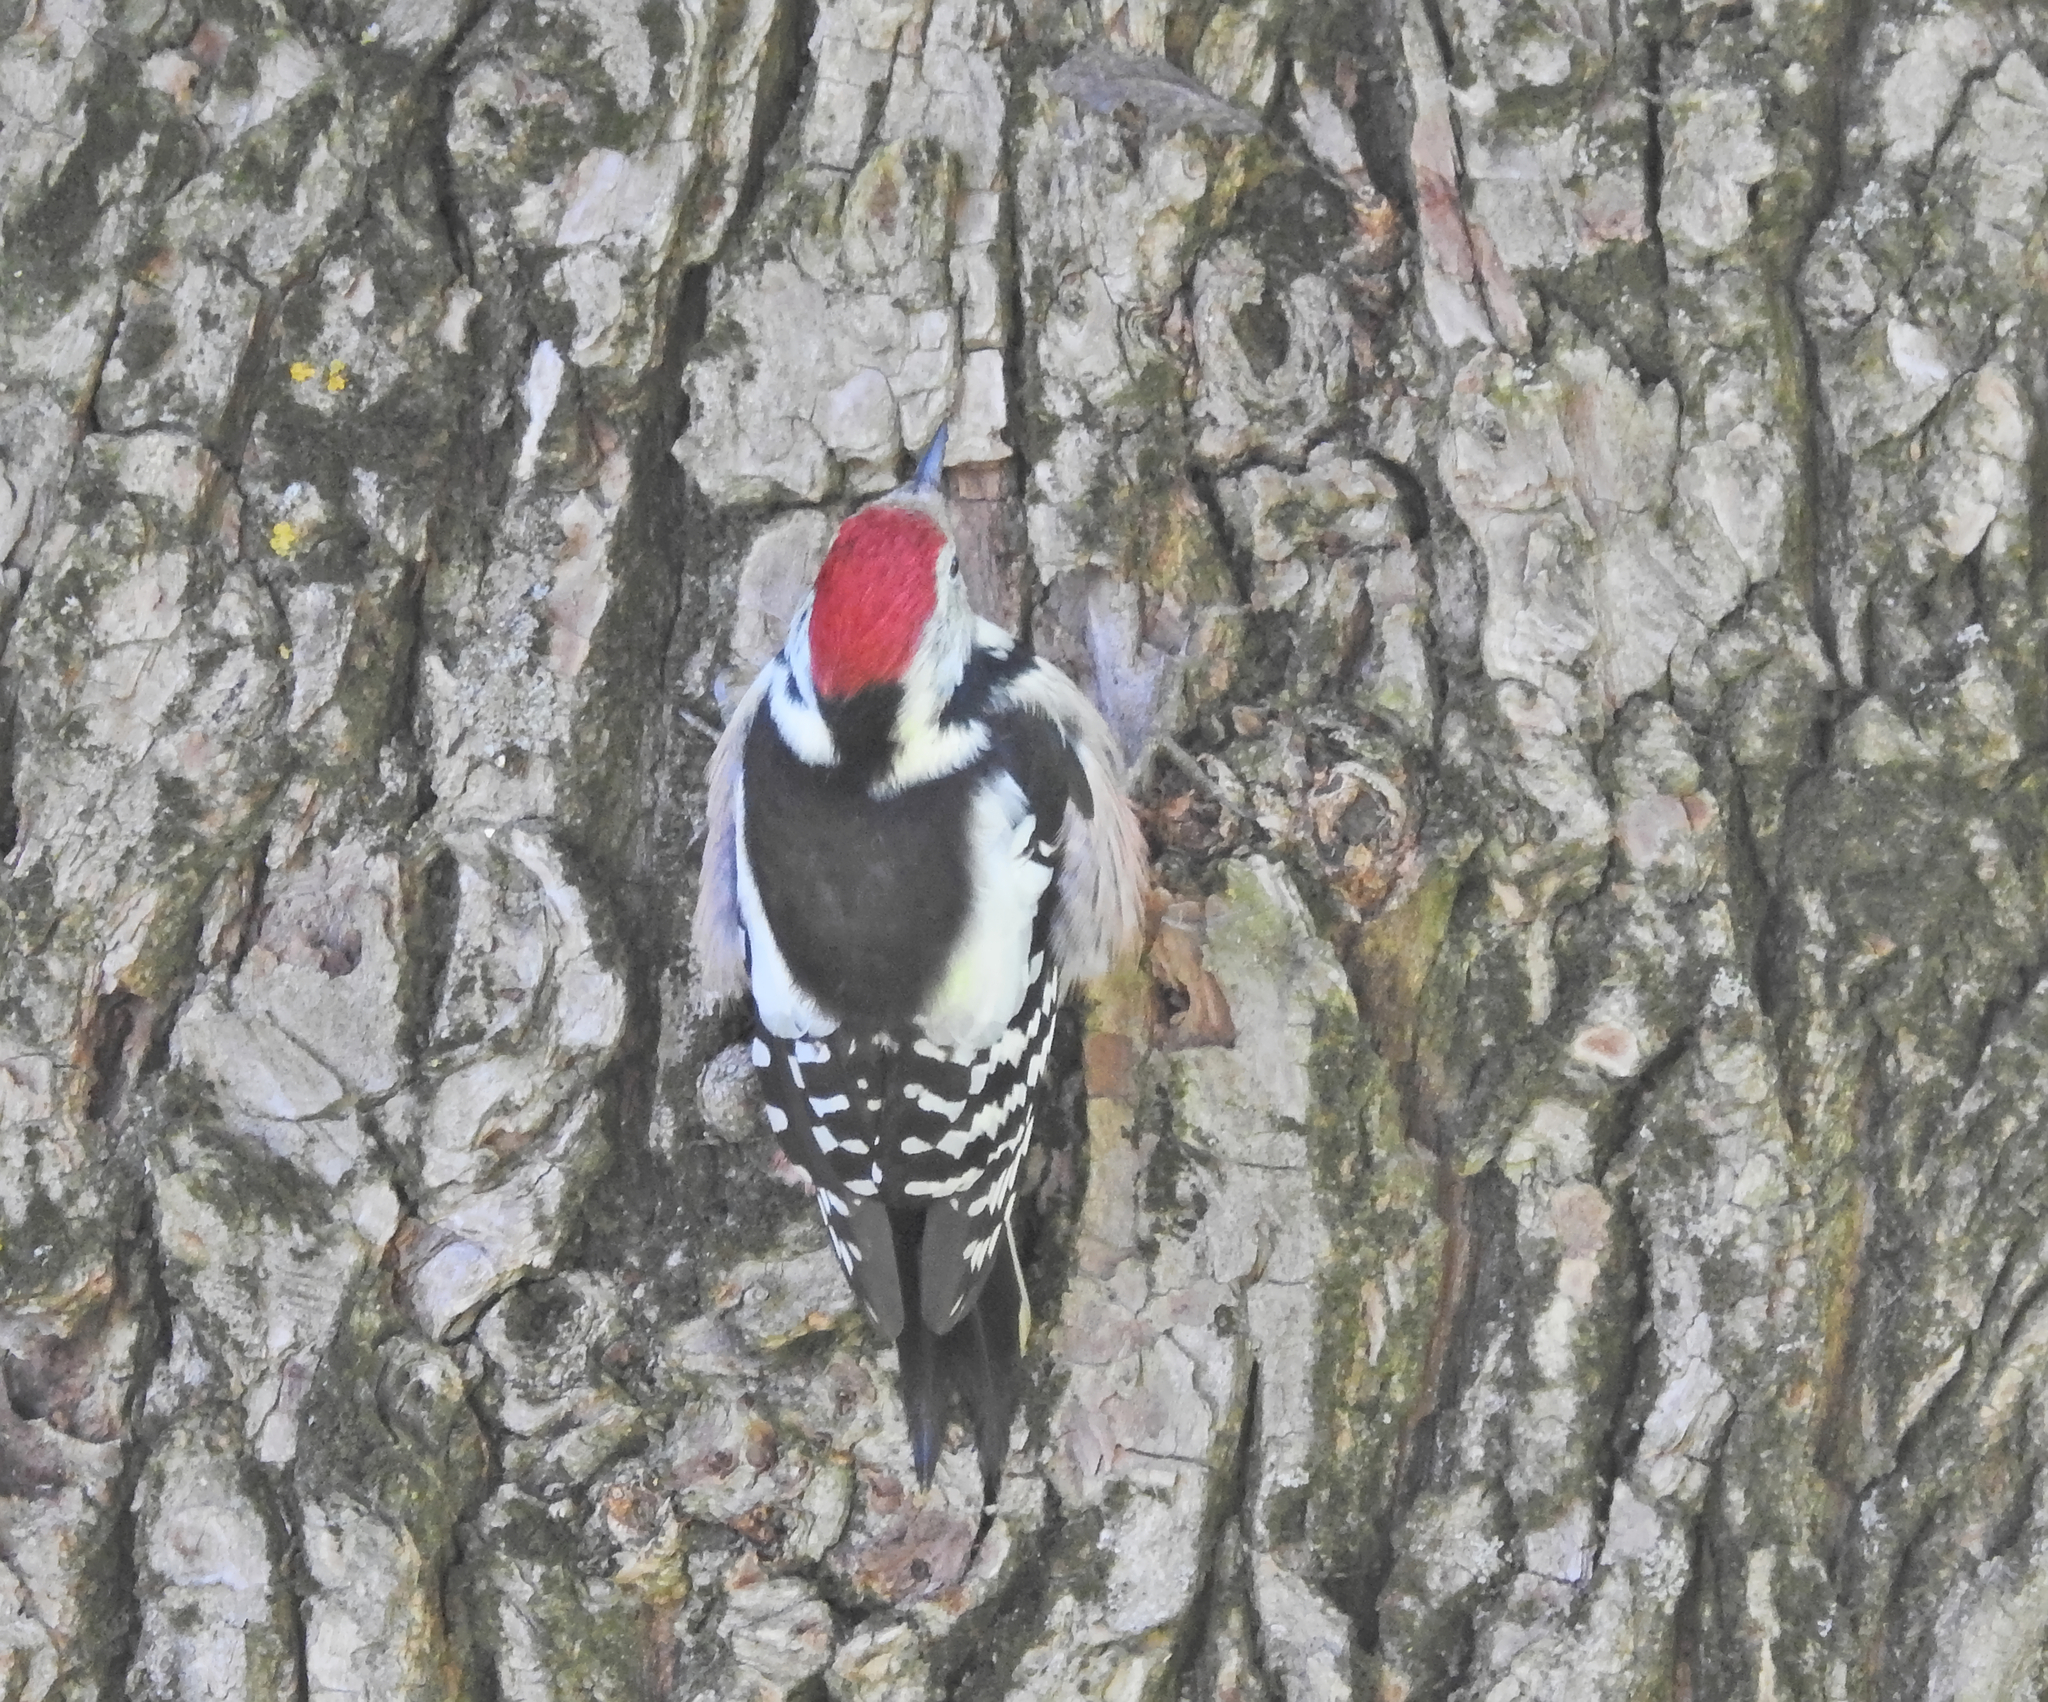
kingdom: Animalia
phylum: Chordata
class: Aves
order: Piciformes
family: Picidae
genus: Dendrocoptes
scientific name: Dendrocoptes medius
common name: Middle spotted woodpecker
